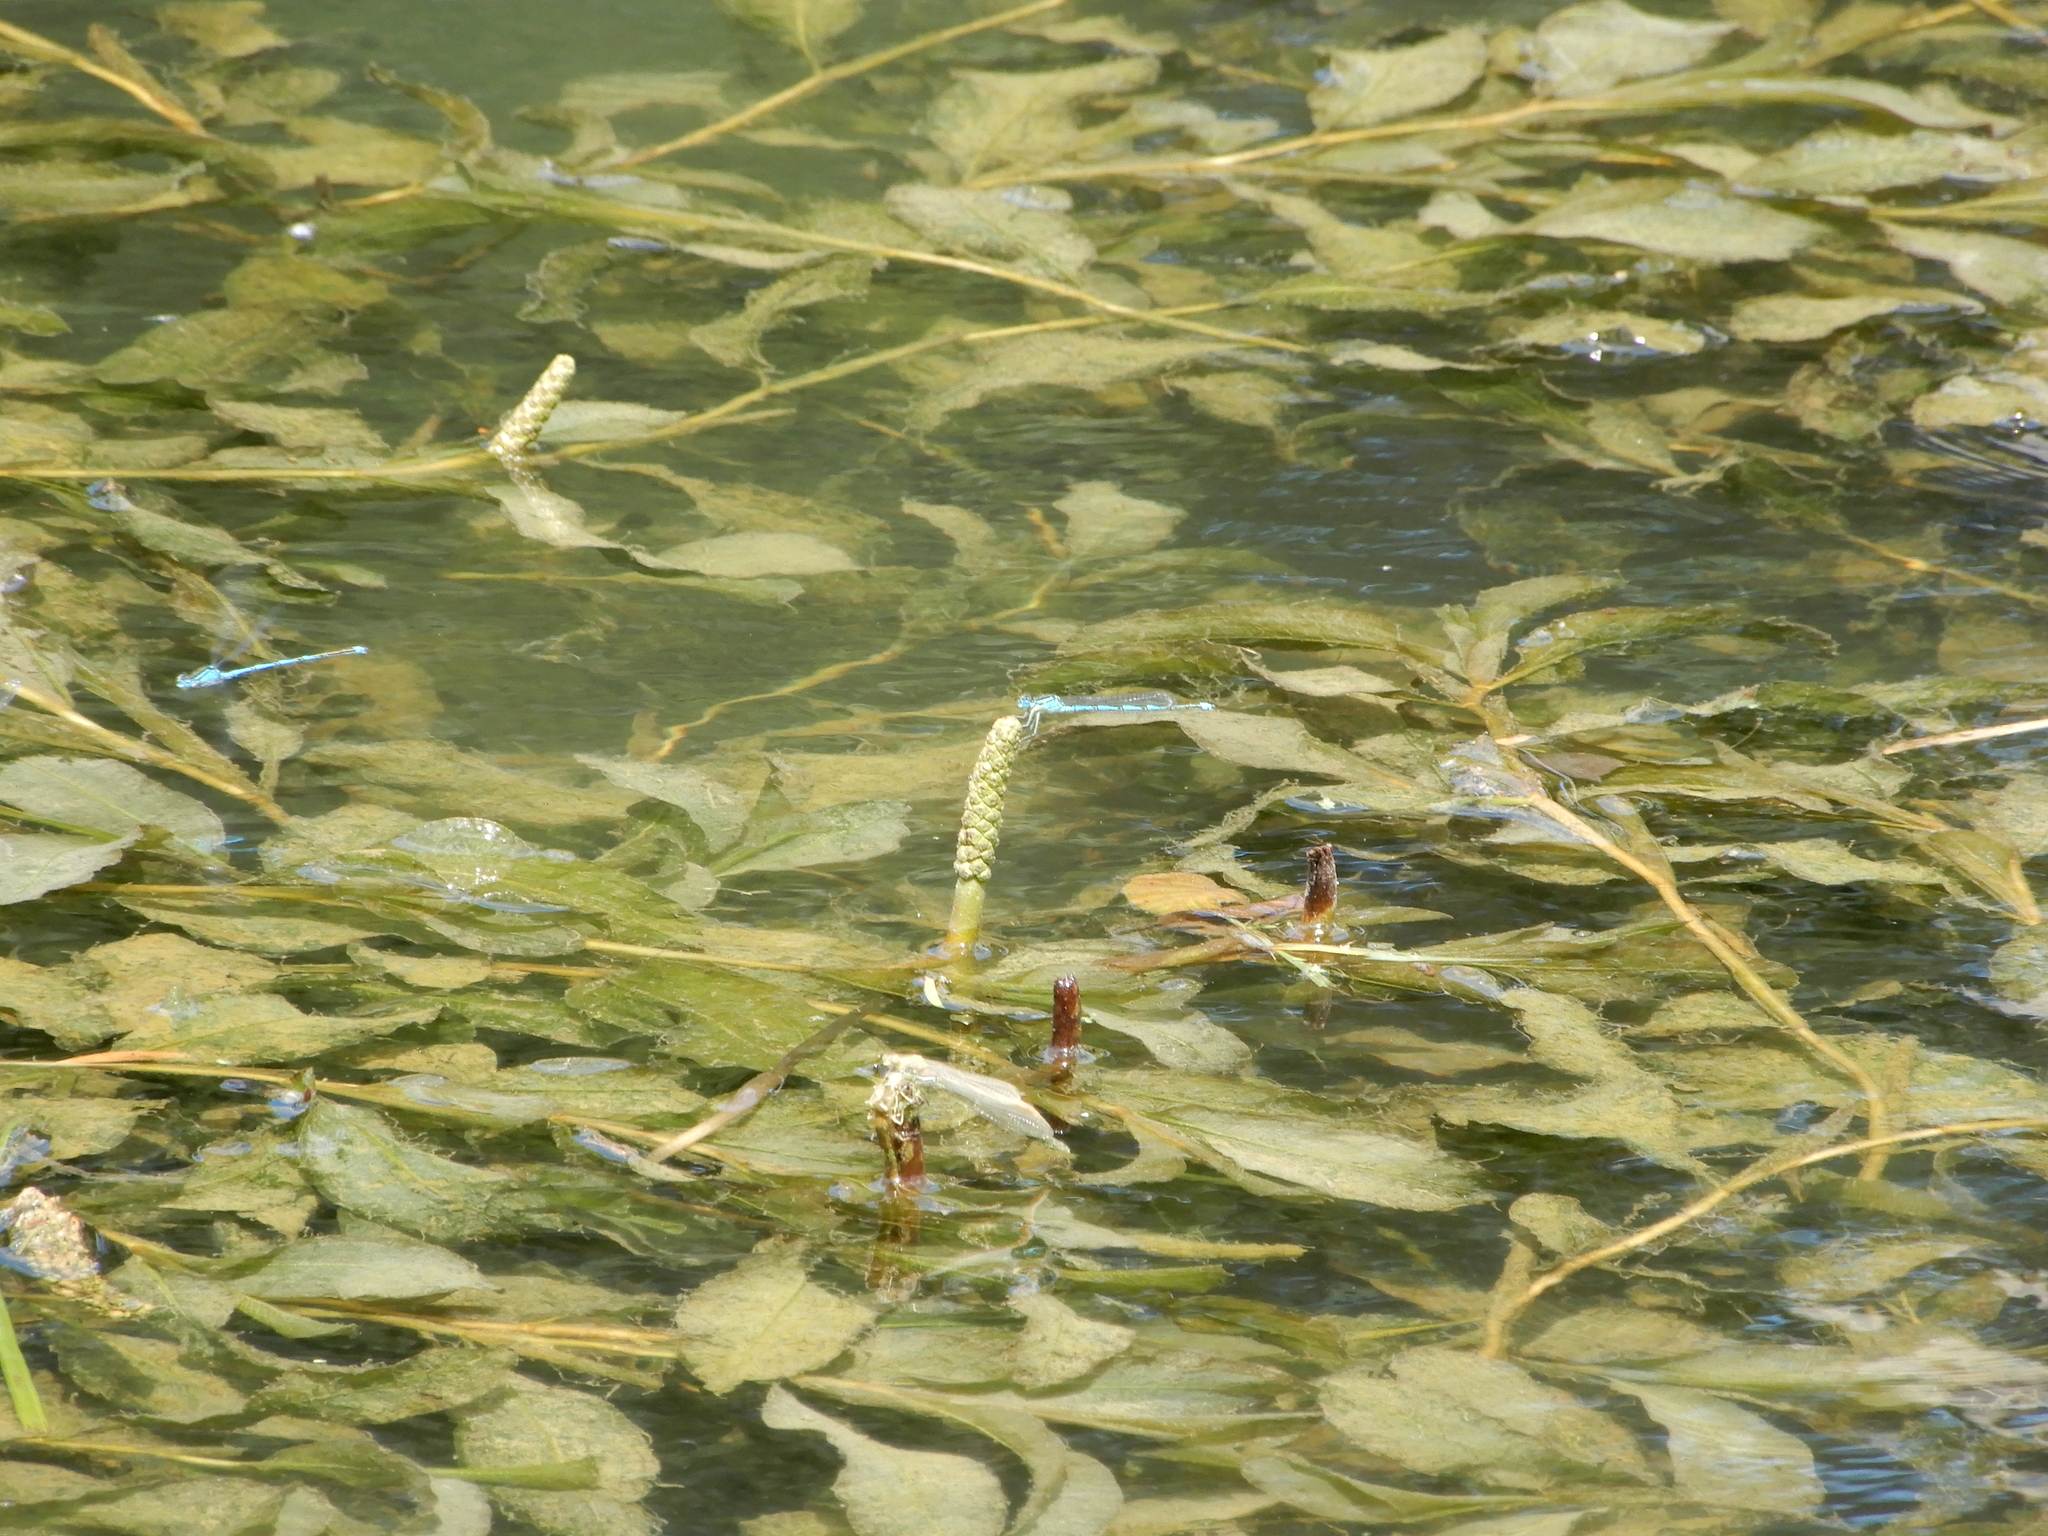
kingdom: Animalia
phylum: Arthropoda
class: Insecta
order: Odonata
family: Coenagrionidae
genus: Erythromma
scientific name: Erythromma lindenii
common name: Blue-eye
